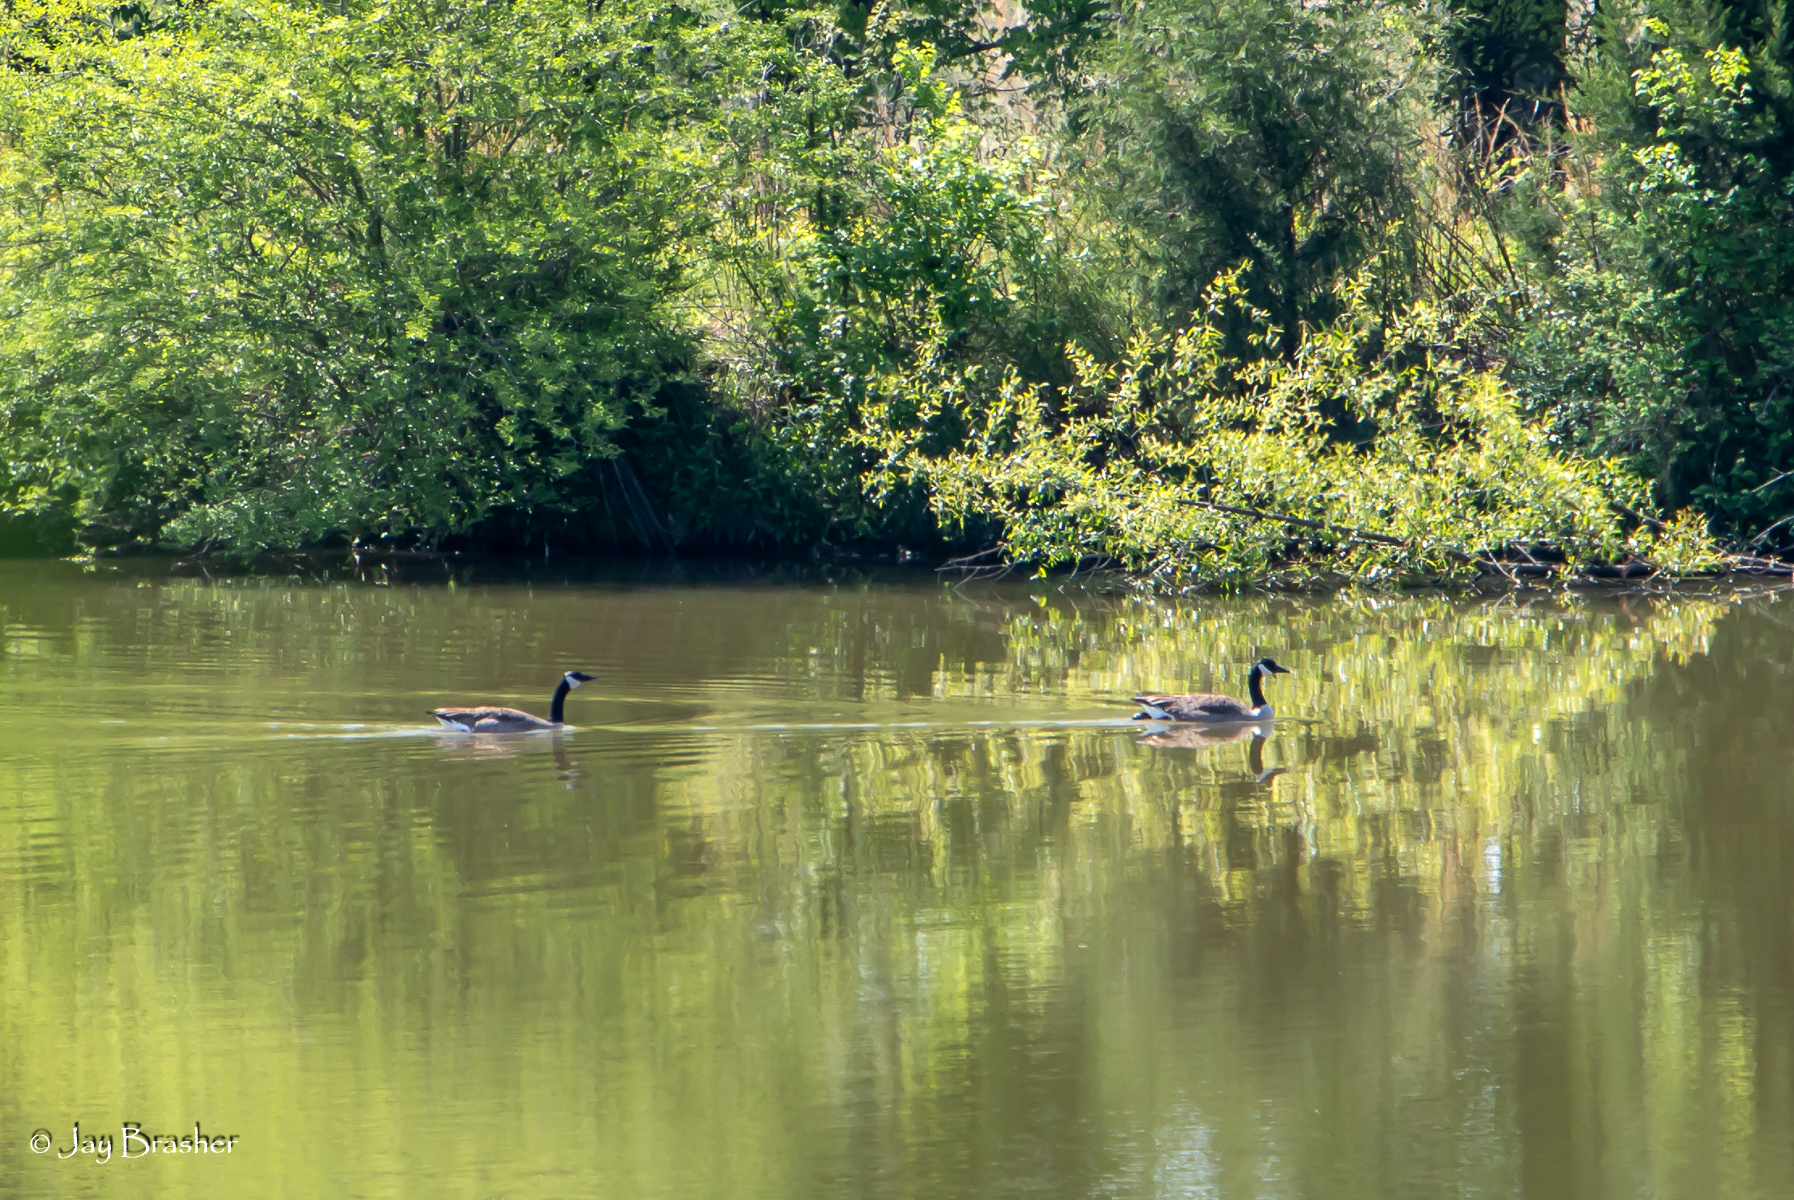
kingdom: Animalia
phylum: Chordata
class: Aves
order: Anseriformes
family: Anatidae
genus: Branta
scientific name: Branta canadensis
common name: Canada goose
